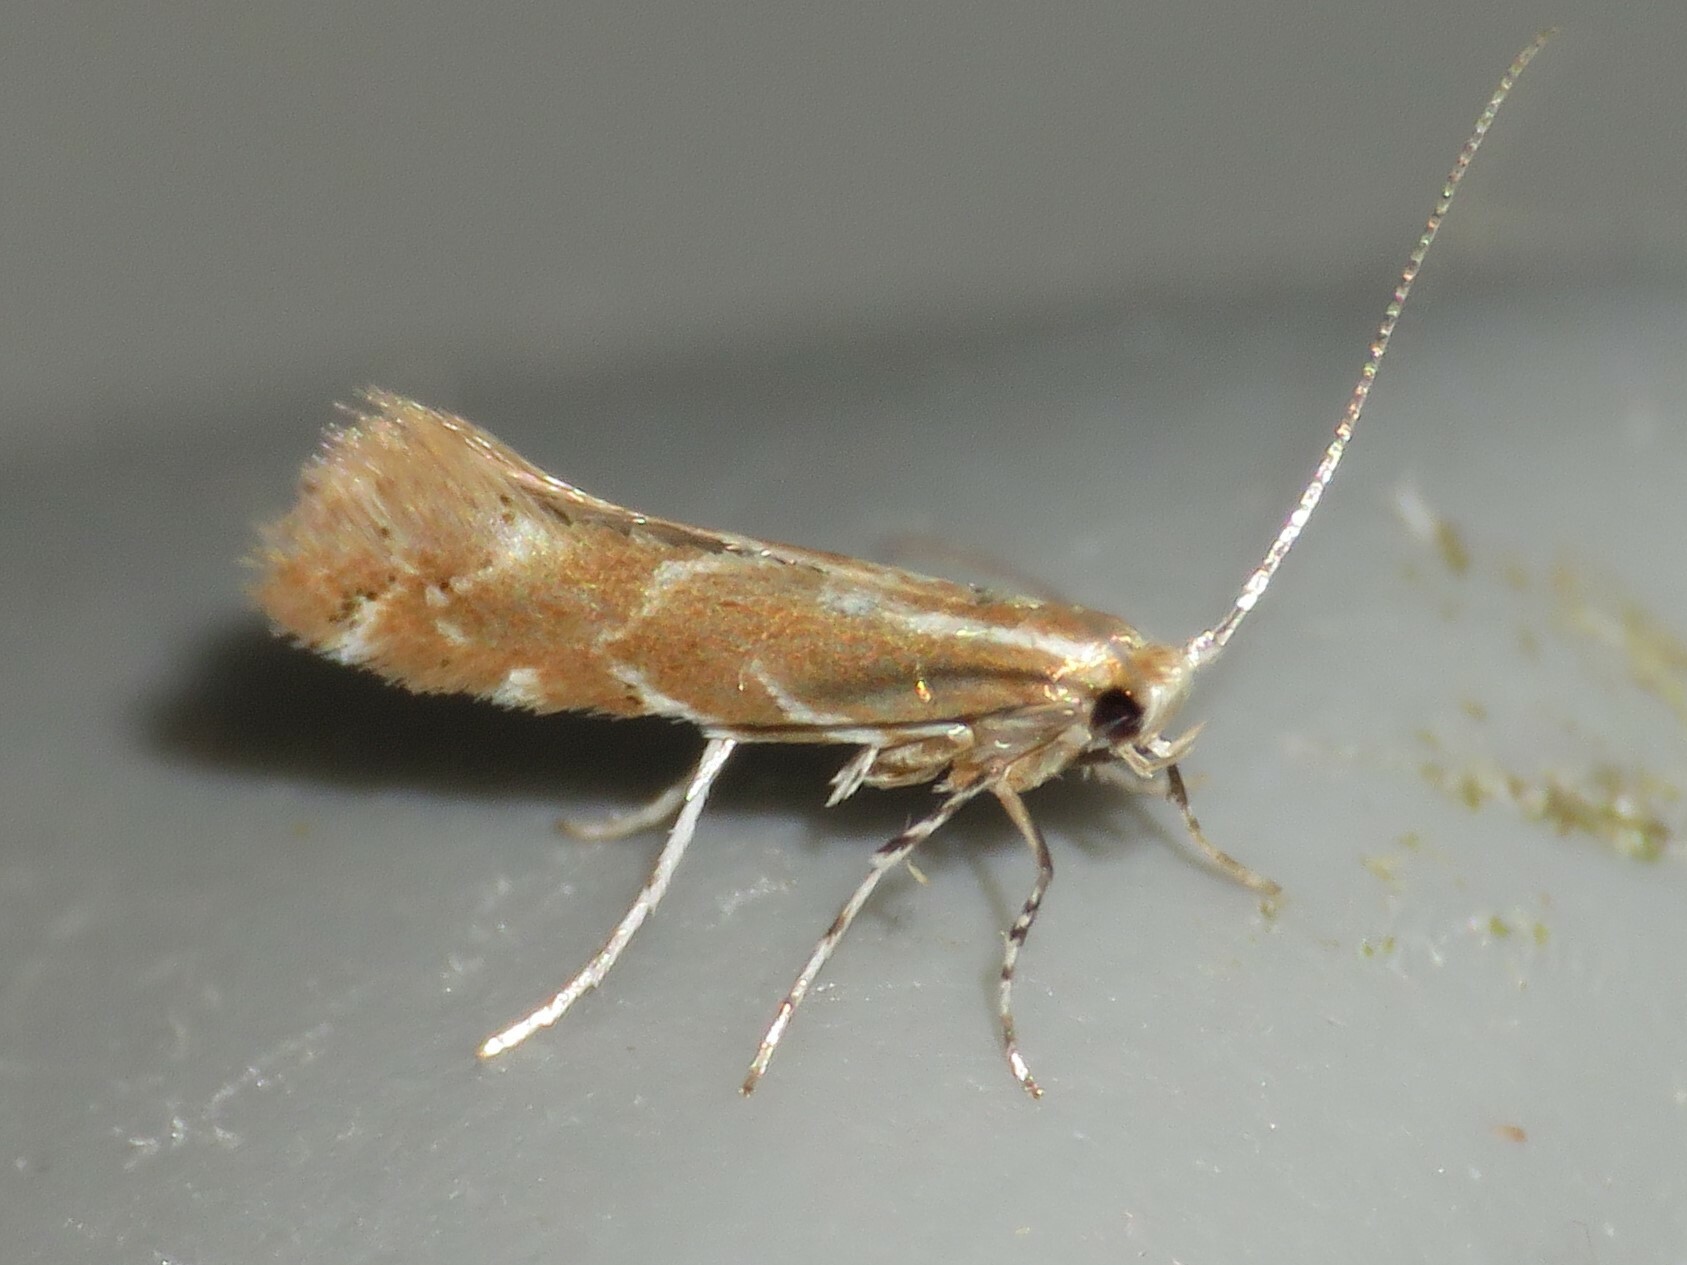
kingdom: Animalia
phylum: Arthropoda
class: Insecta
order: Lepidoptera
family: Gracillariidae
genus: Cremastobombycia
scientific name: Cremastobombycia solidaginis
